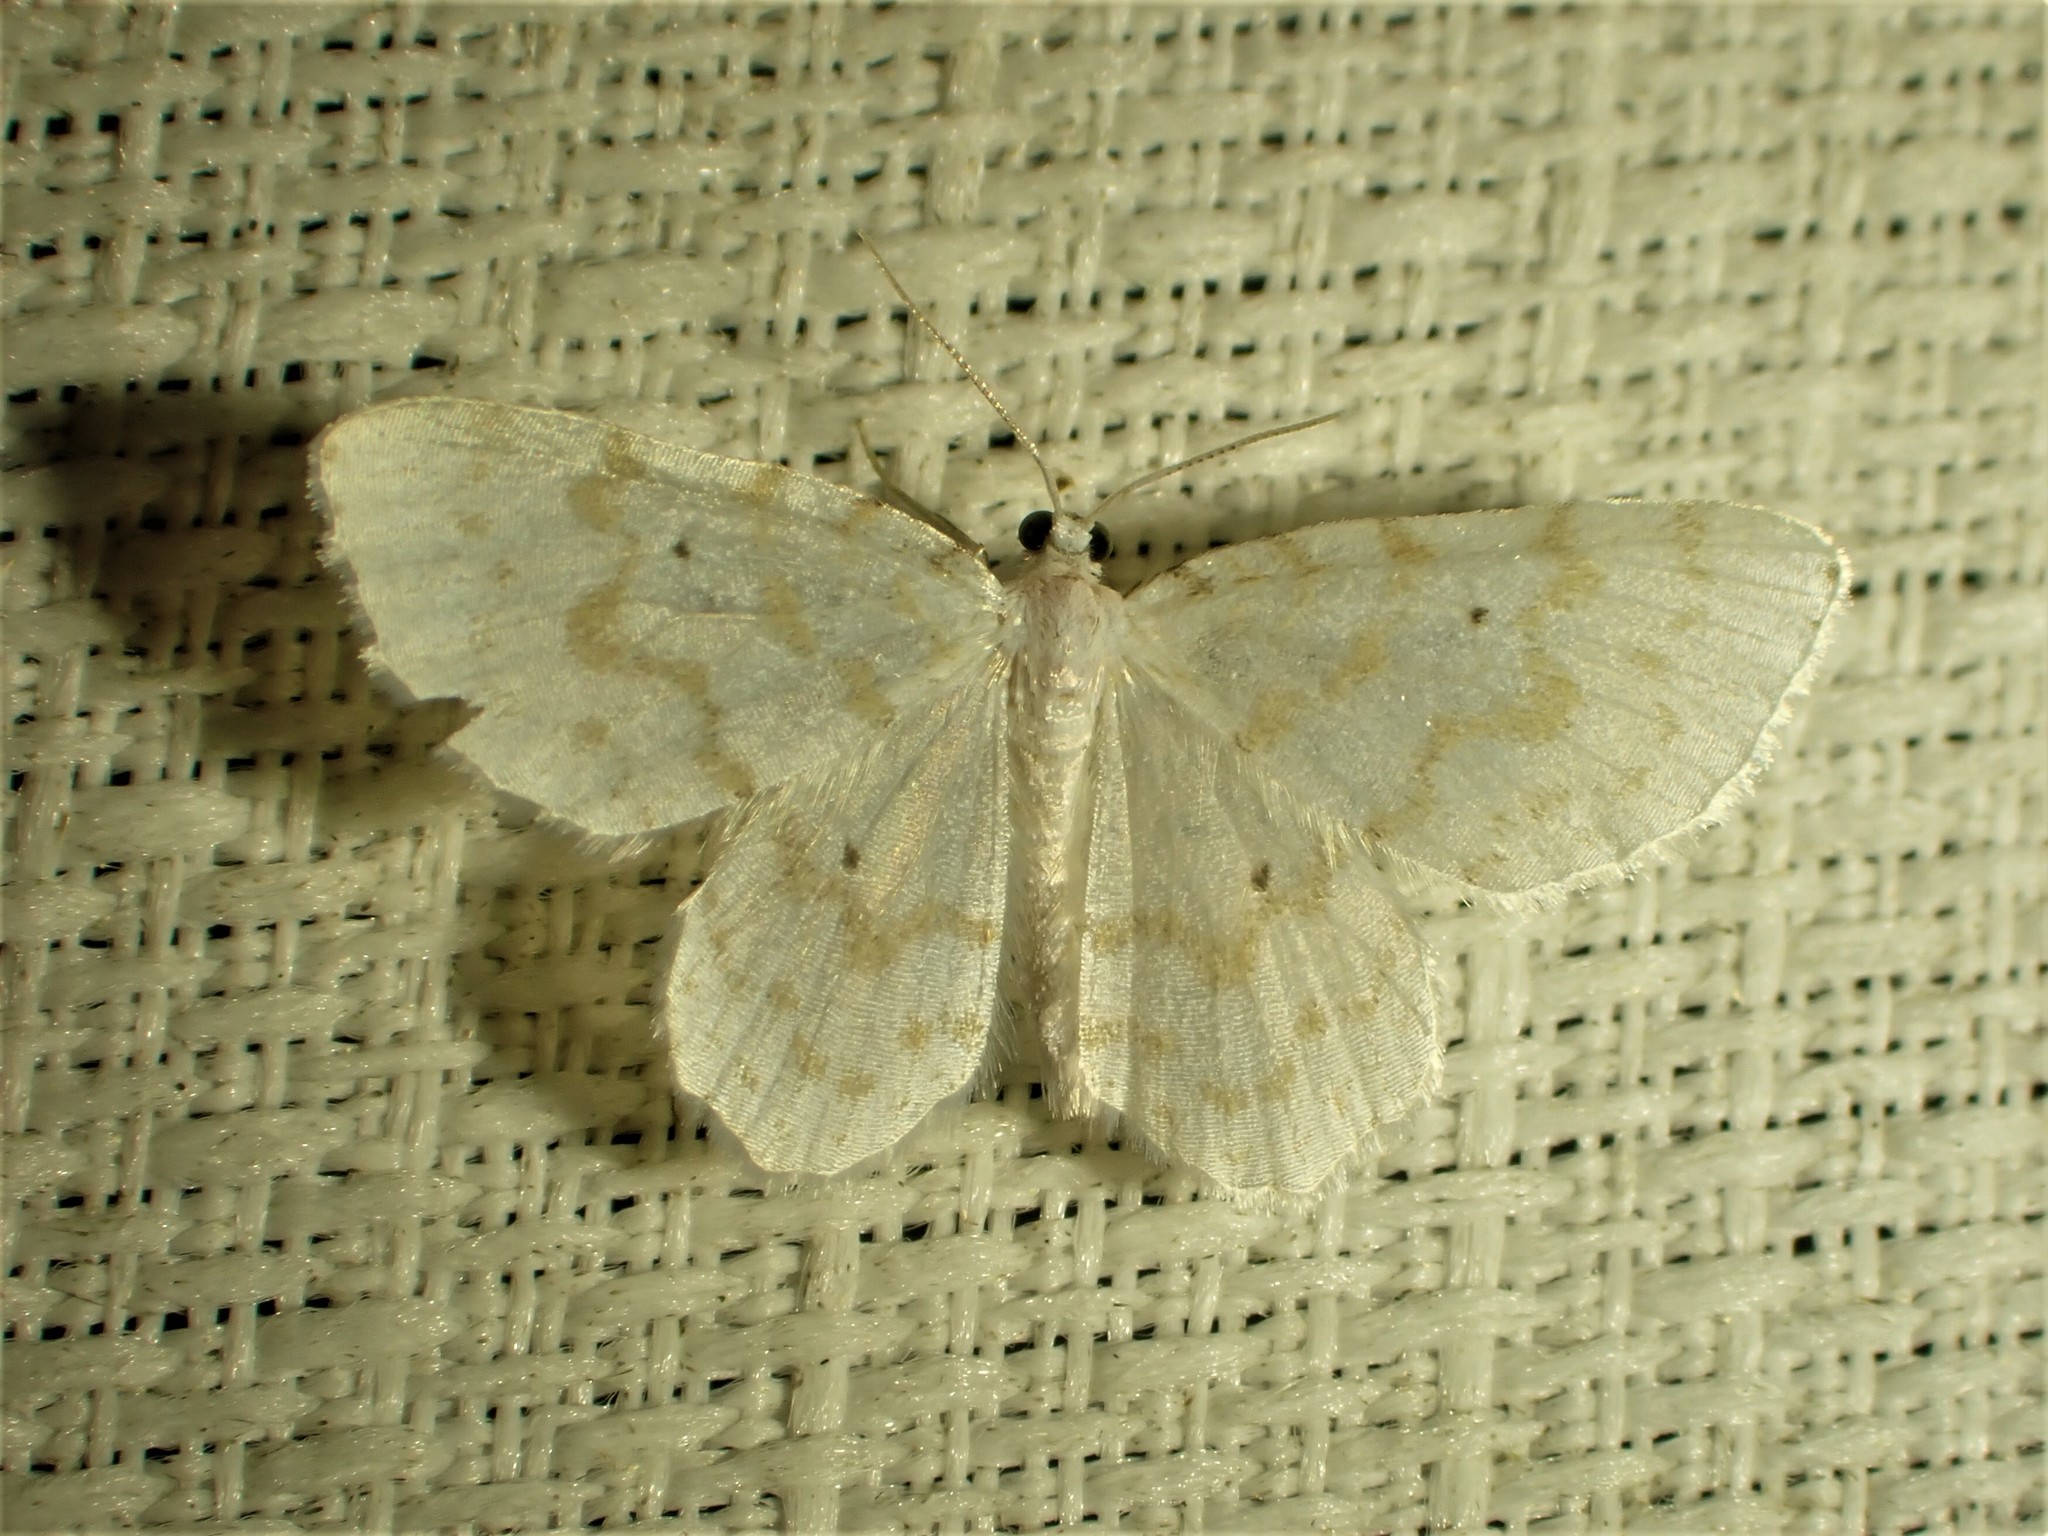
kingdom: Animalia
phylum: Arthropoda
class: Insecta
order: Lepidoptera
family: Geometridae
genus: Hydrelia
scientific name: Hydrelia albifera
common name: Fragile white carpet
